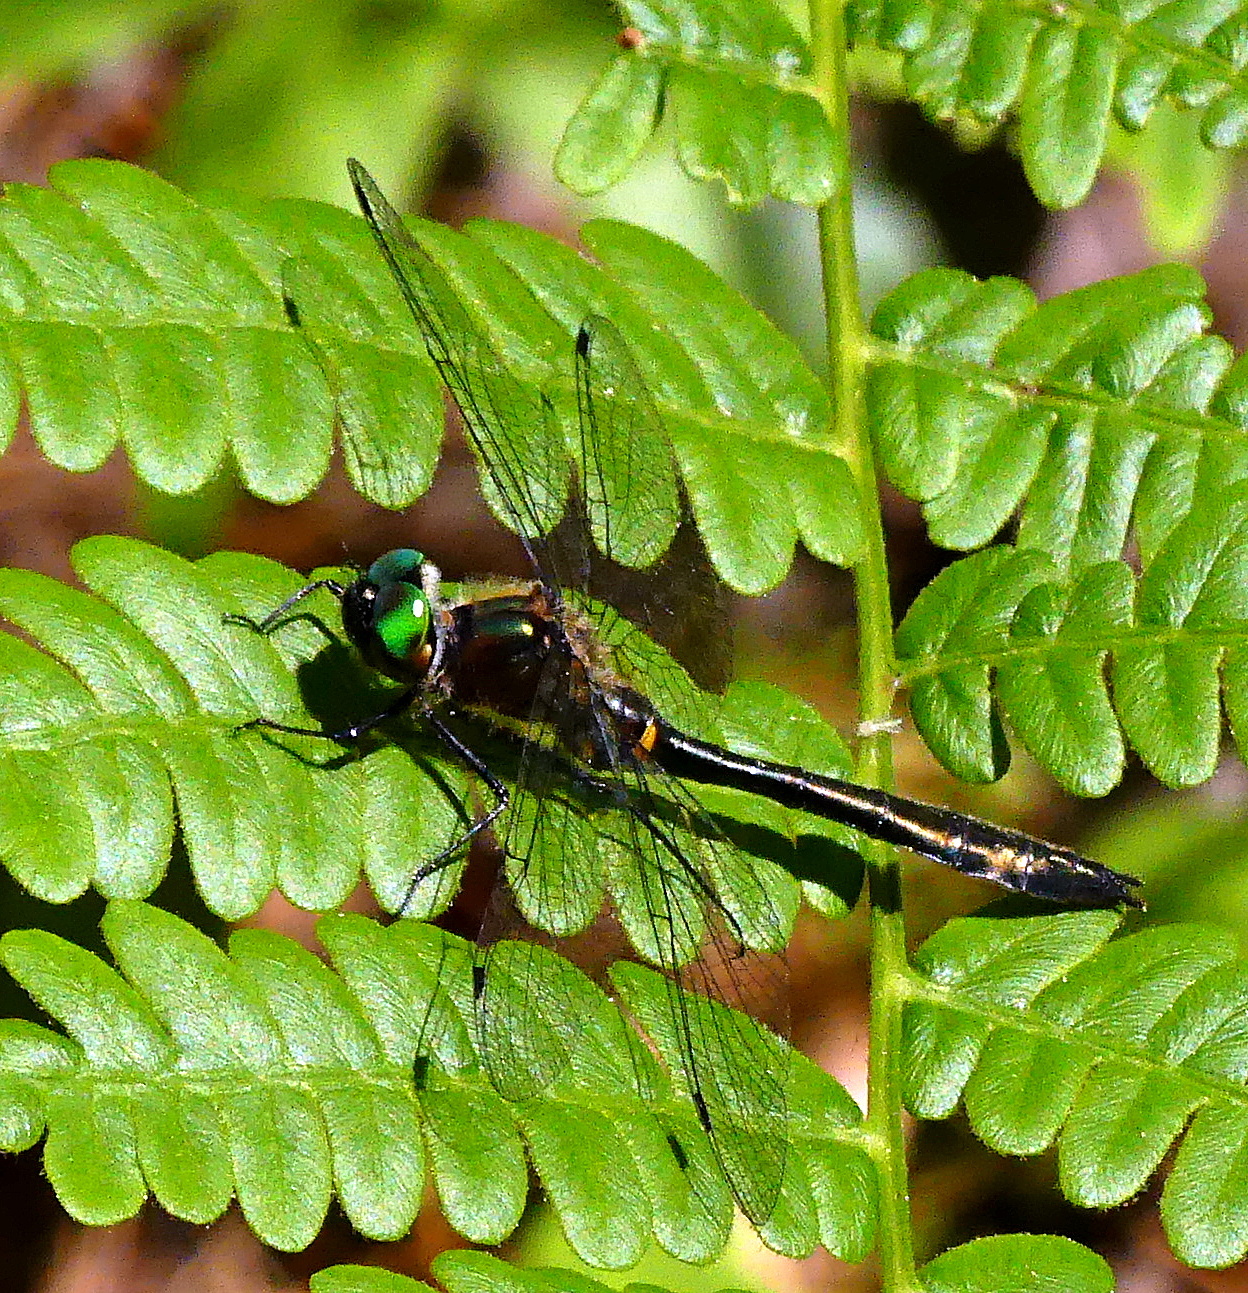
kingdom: Animalia
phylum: Arthropoda
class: Insecta
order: Odonata
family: Corduliidae
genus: Dorocordulia
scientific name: Dorocordulia libera
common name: Racket-tailed emerald
